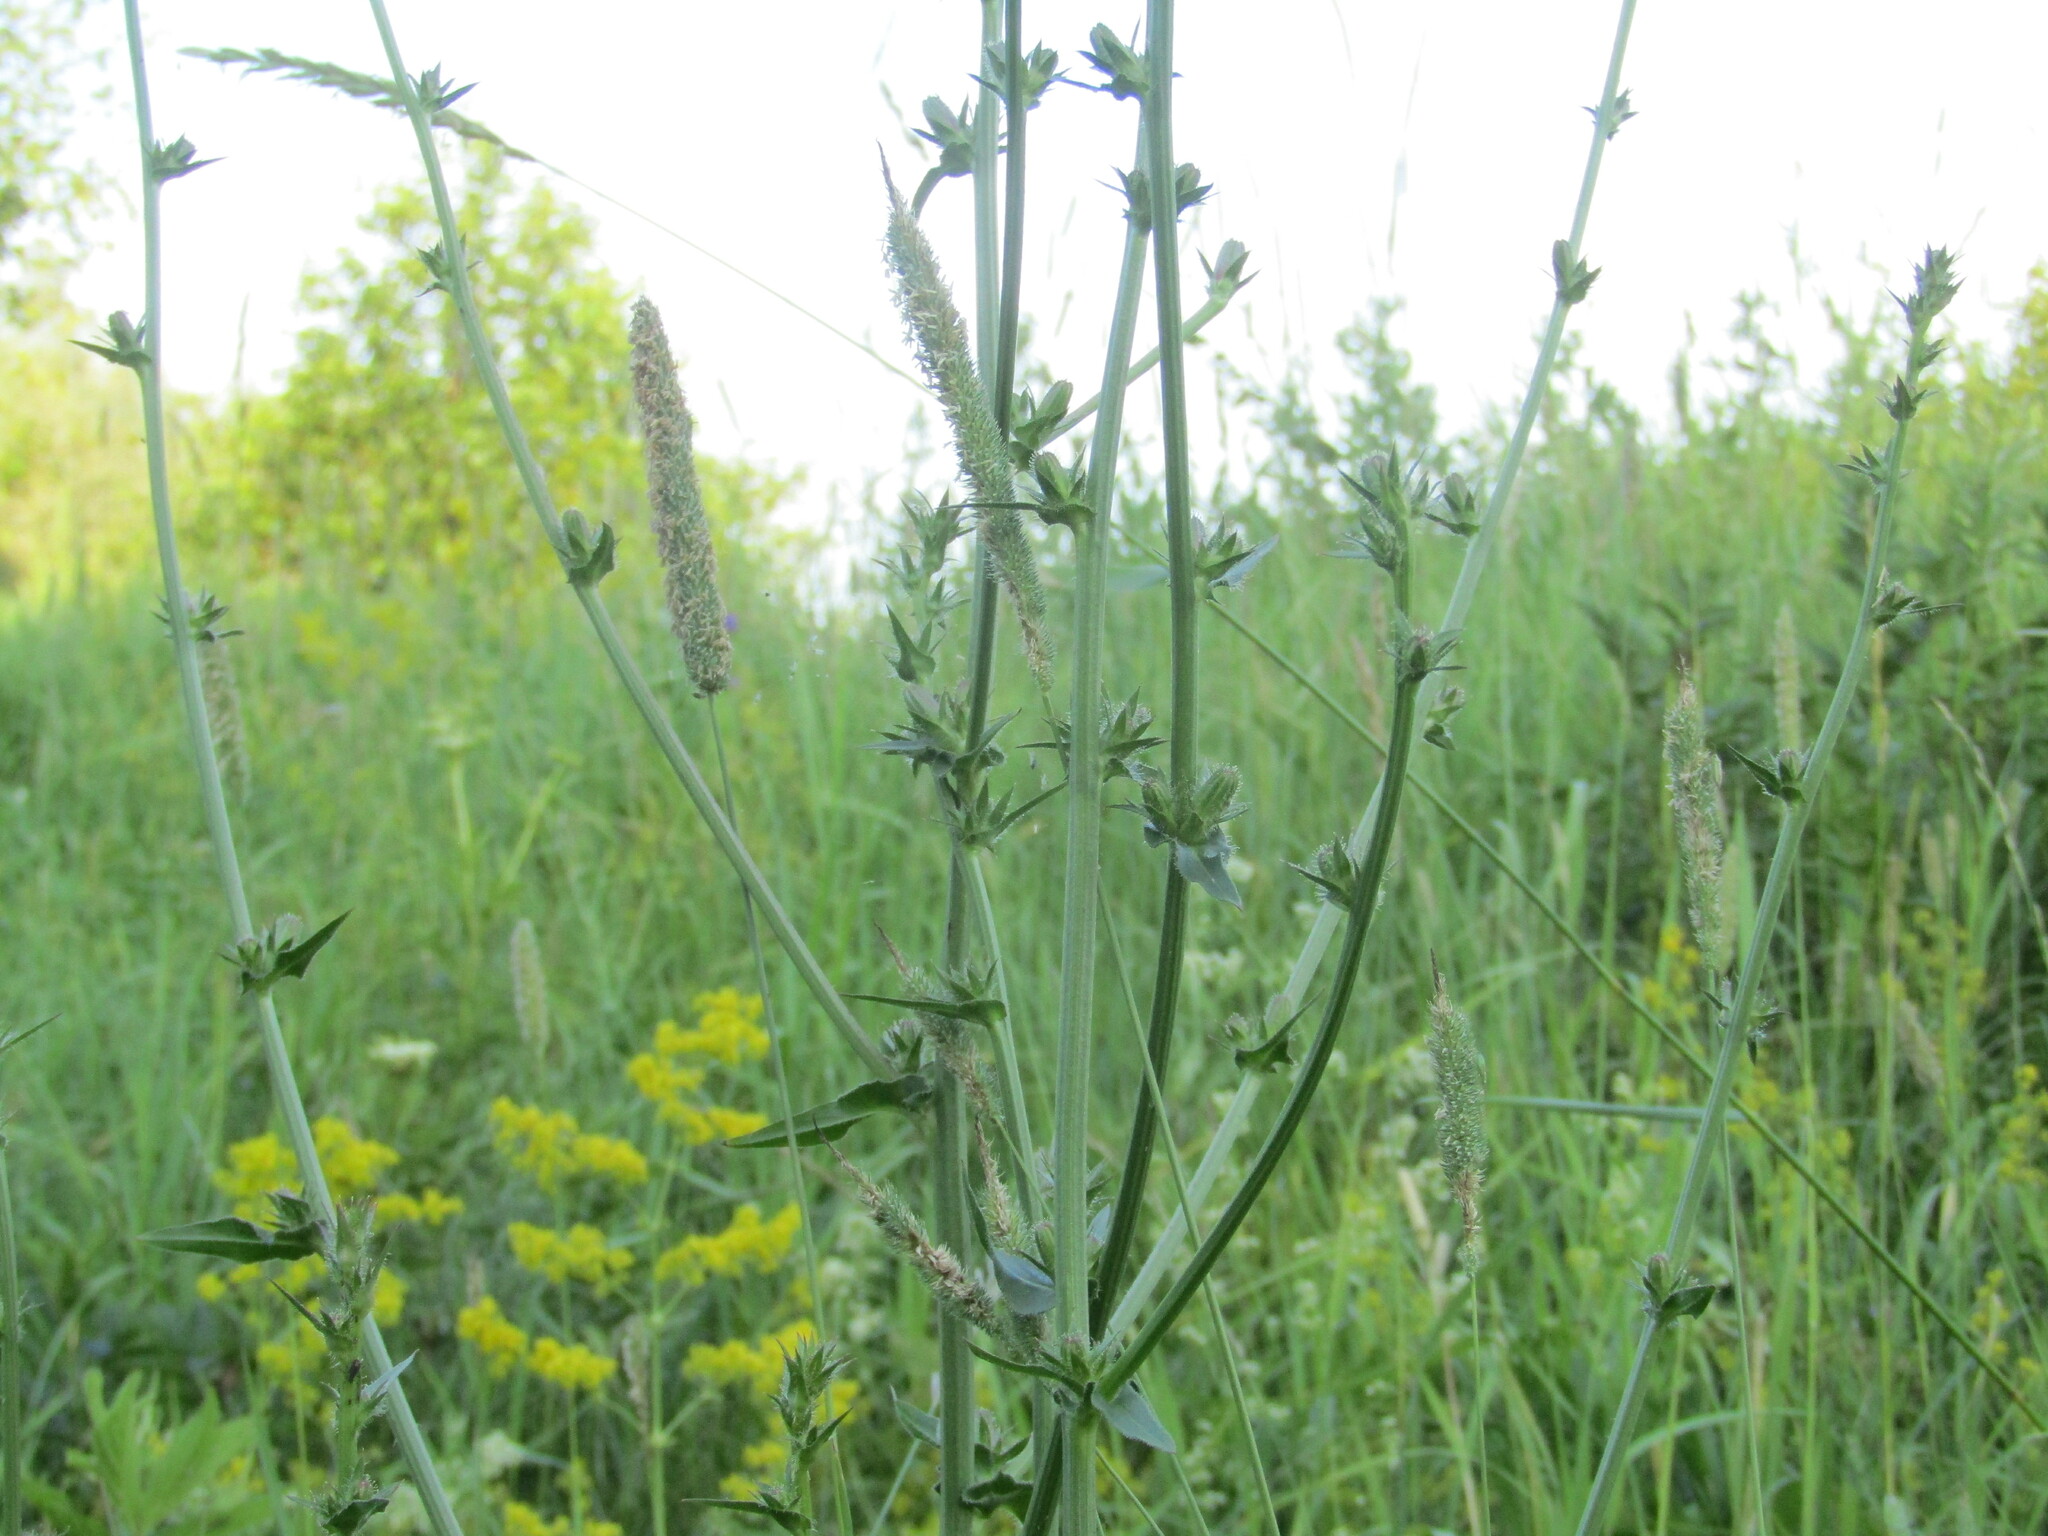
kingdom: Plantae
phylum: Tracheophyta
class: Magnoliopsida
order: Asterales
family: Asteraceae
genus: Cichorium
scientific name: Cichorium intybus
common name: Chicory
